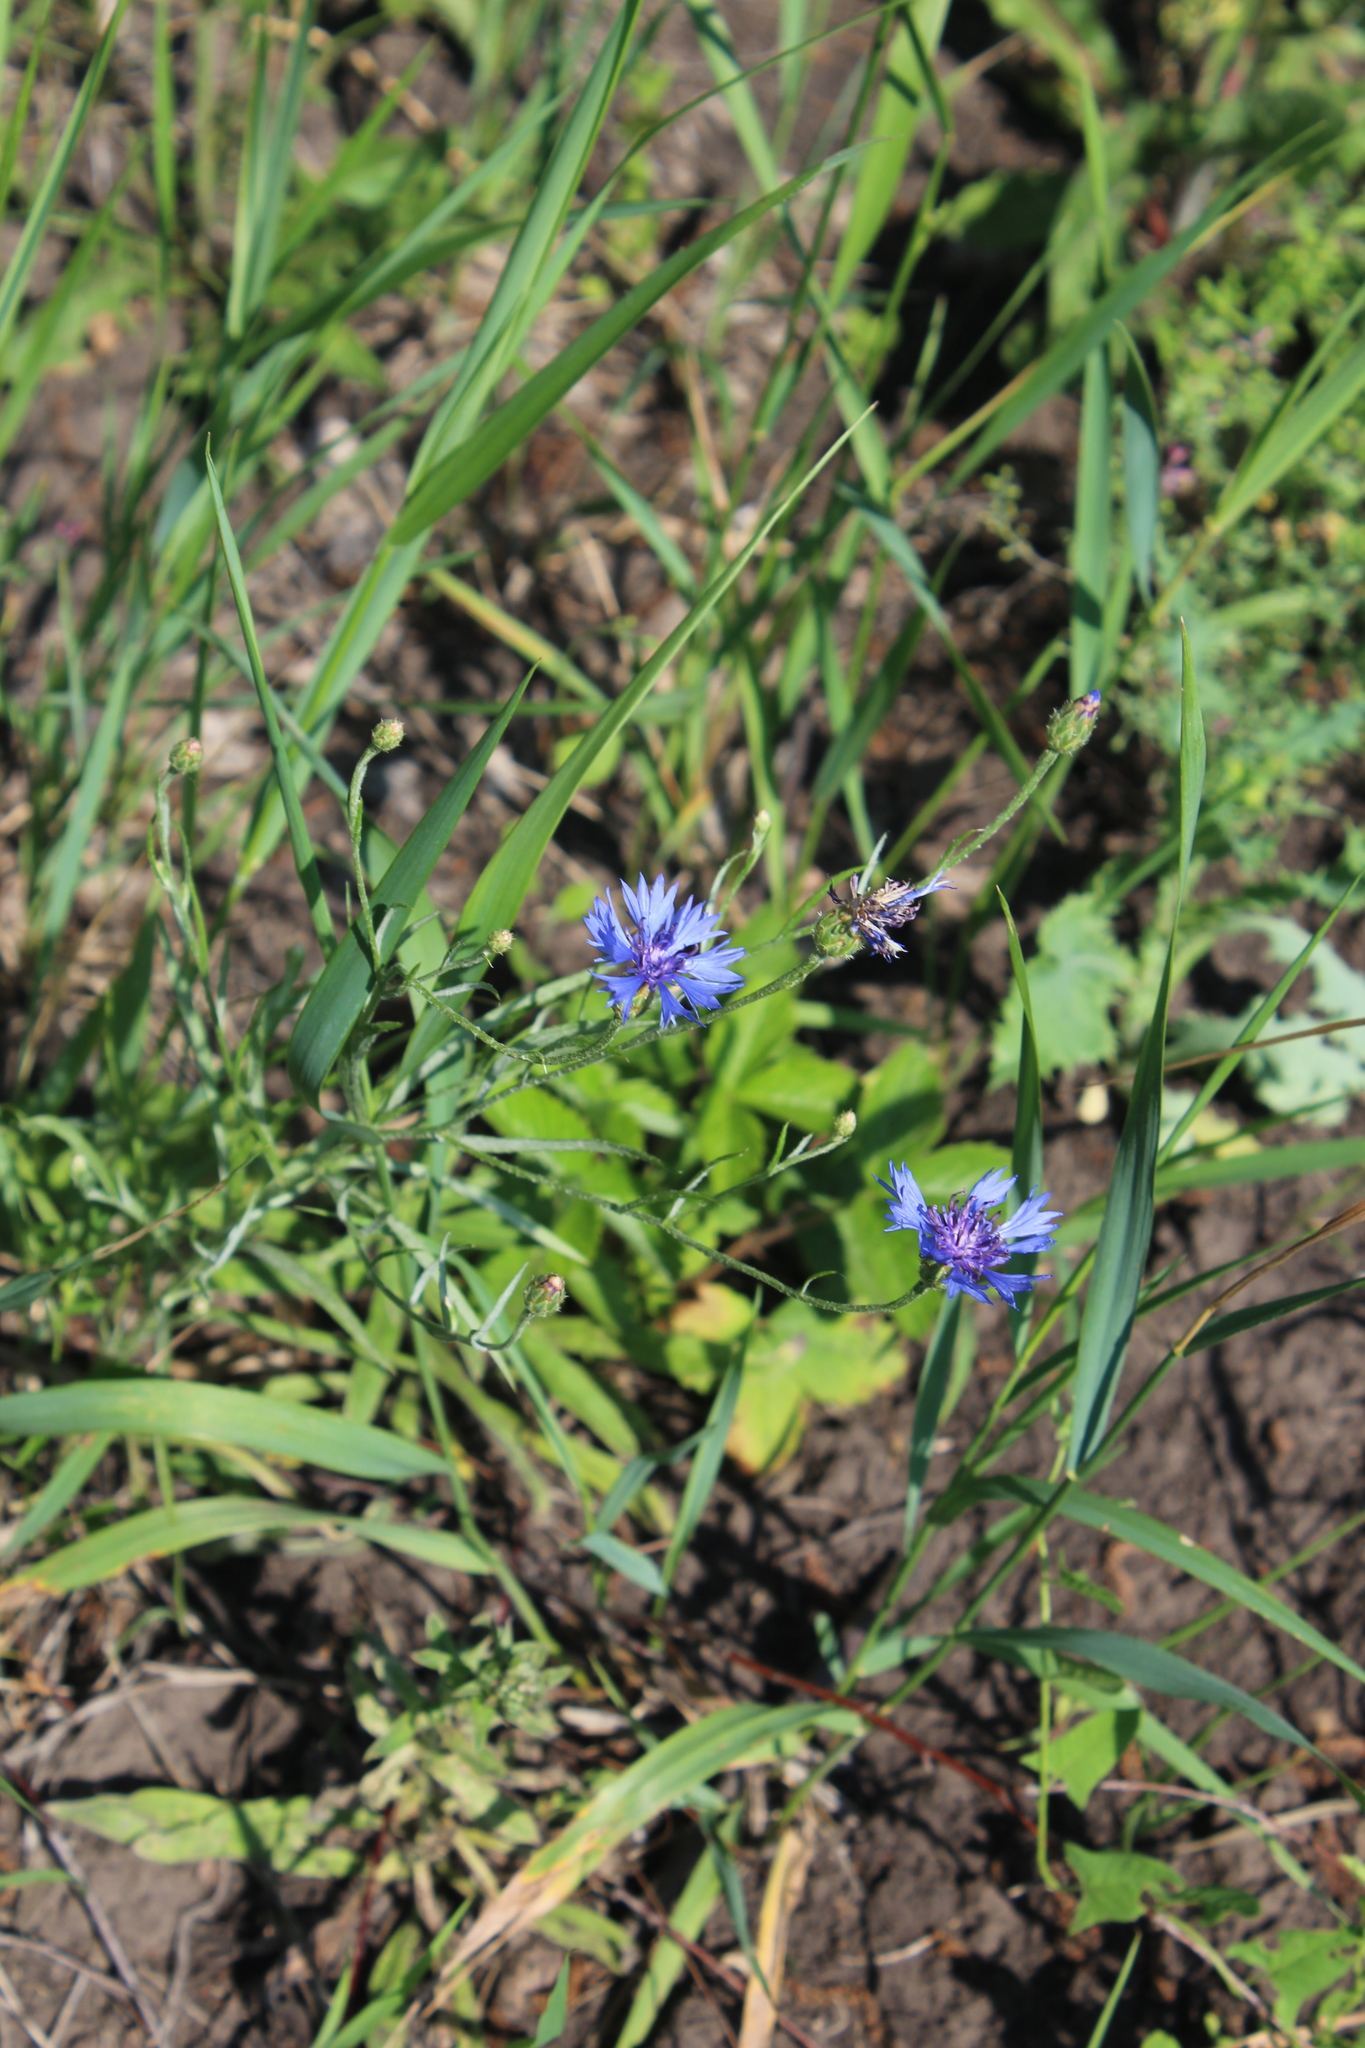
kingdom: Plantae
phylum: Tracheophyta
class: Magnoliopsida
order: Asterales
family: Asteraceae
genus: Centaurea
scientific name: Centaurea cyanus
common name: Cornflower
